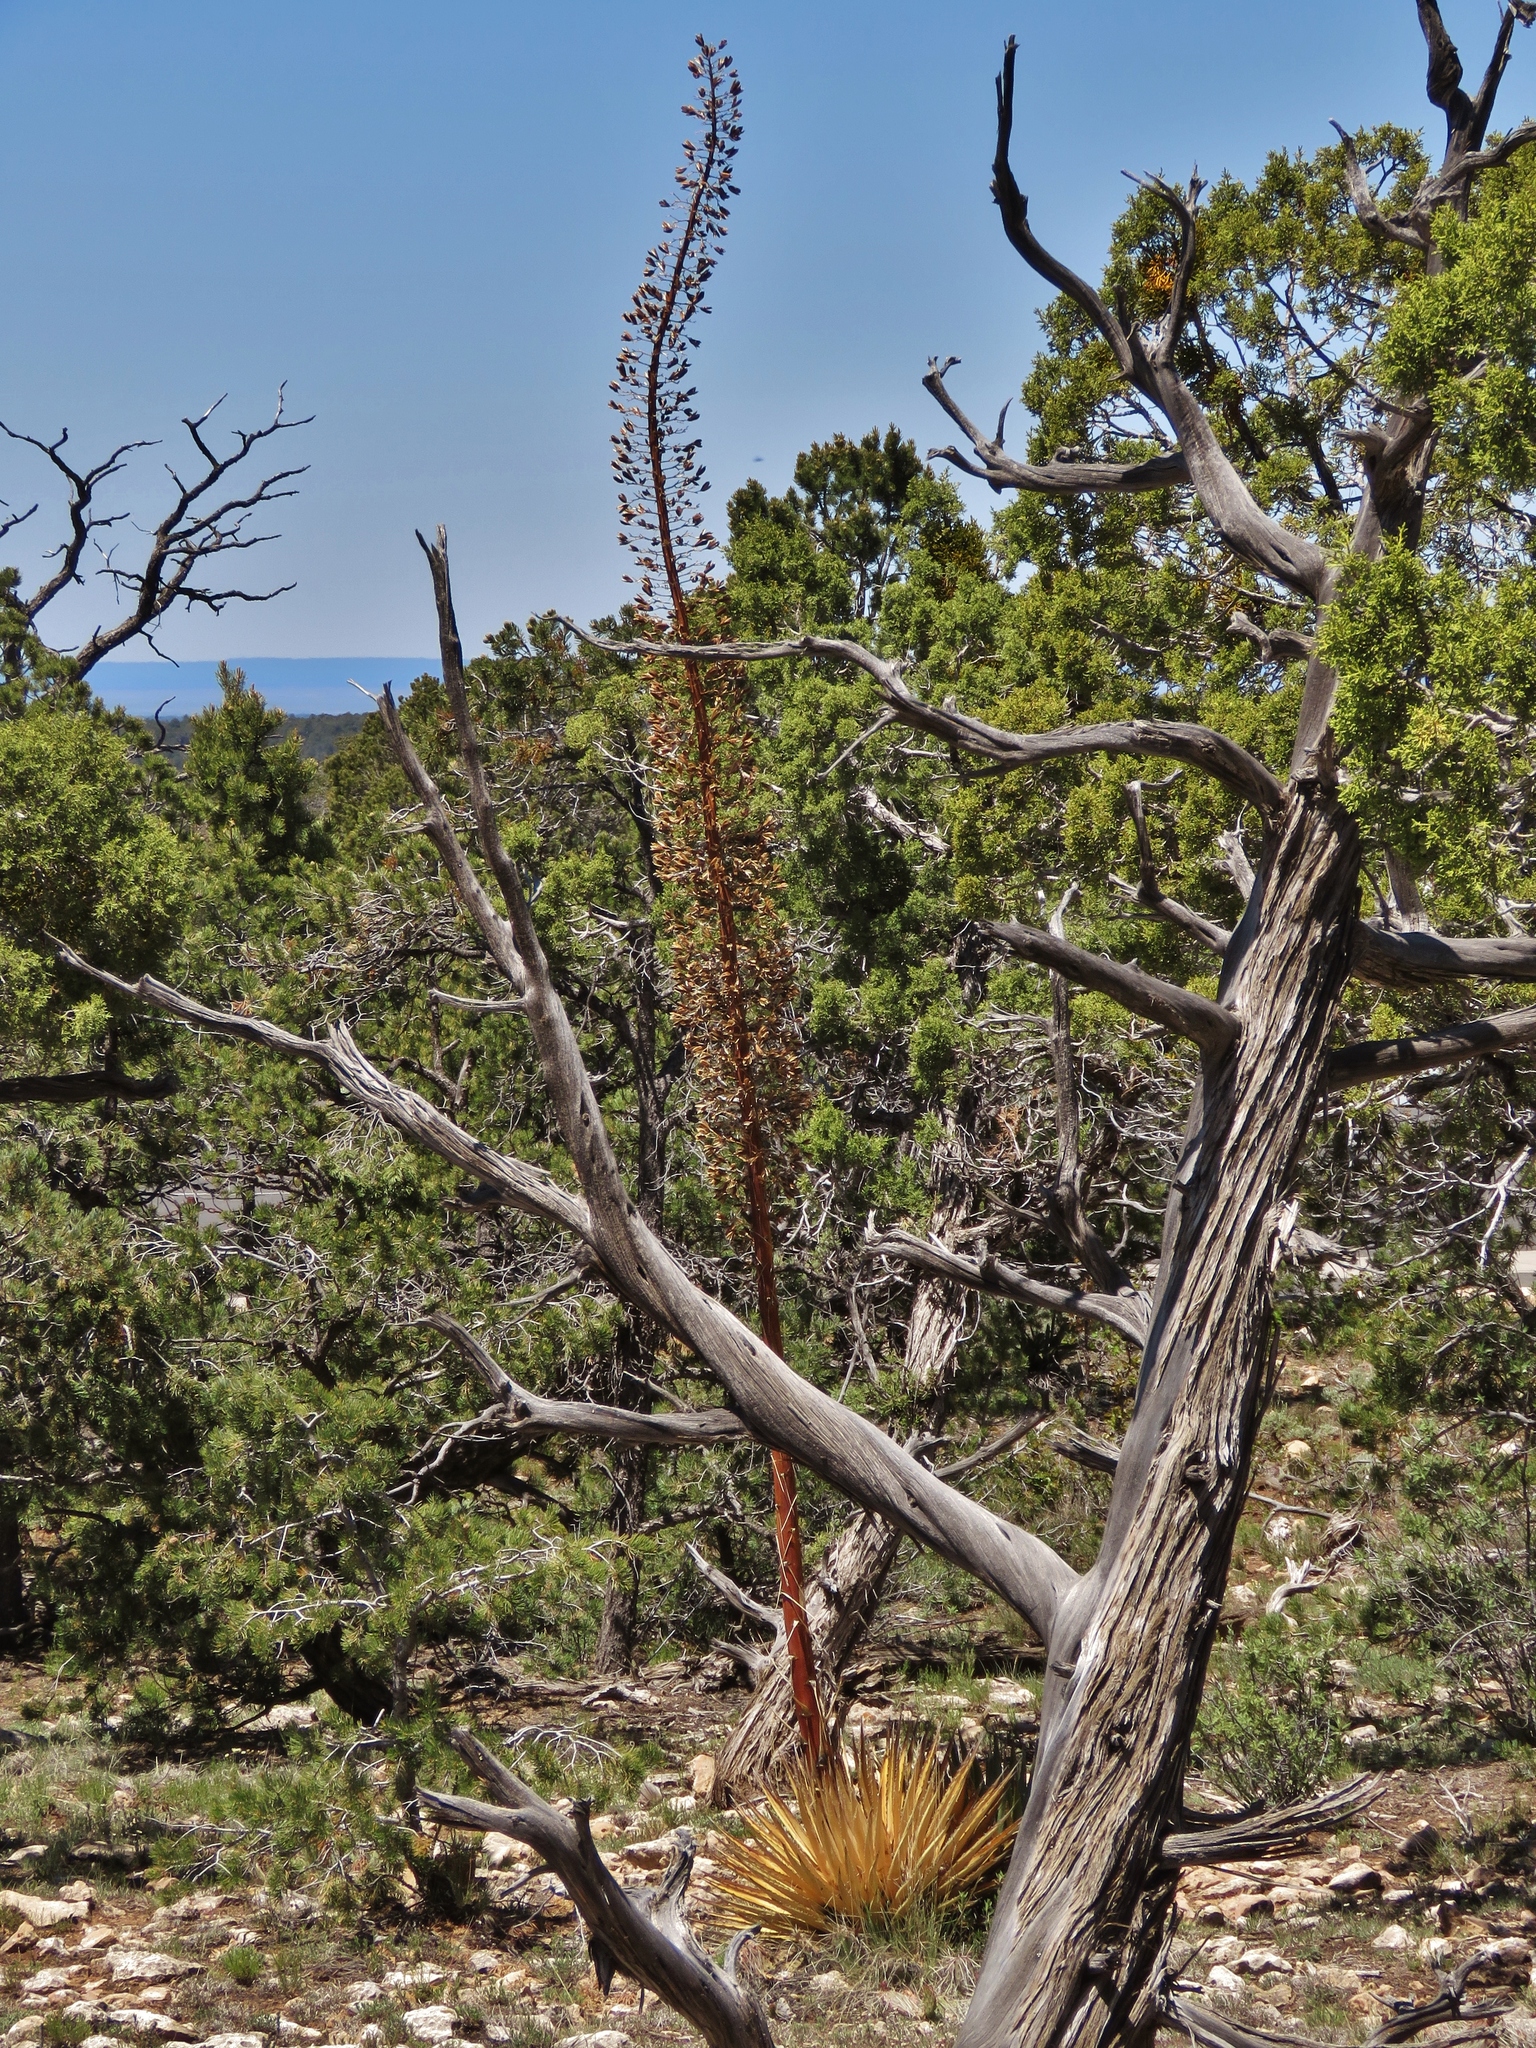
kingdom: Plantae
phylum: Tracheophyta
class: Liliopsida
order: Asparagales
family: Asparagaceae
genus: Agave
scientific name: Agave utahensis
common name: Utah agave
